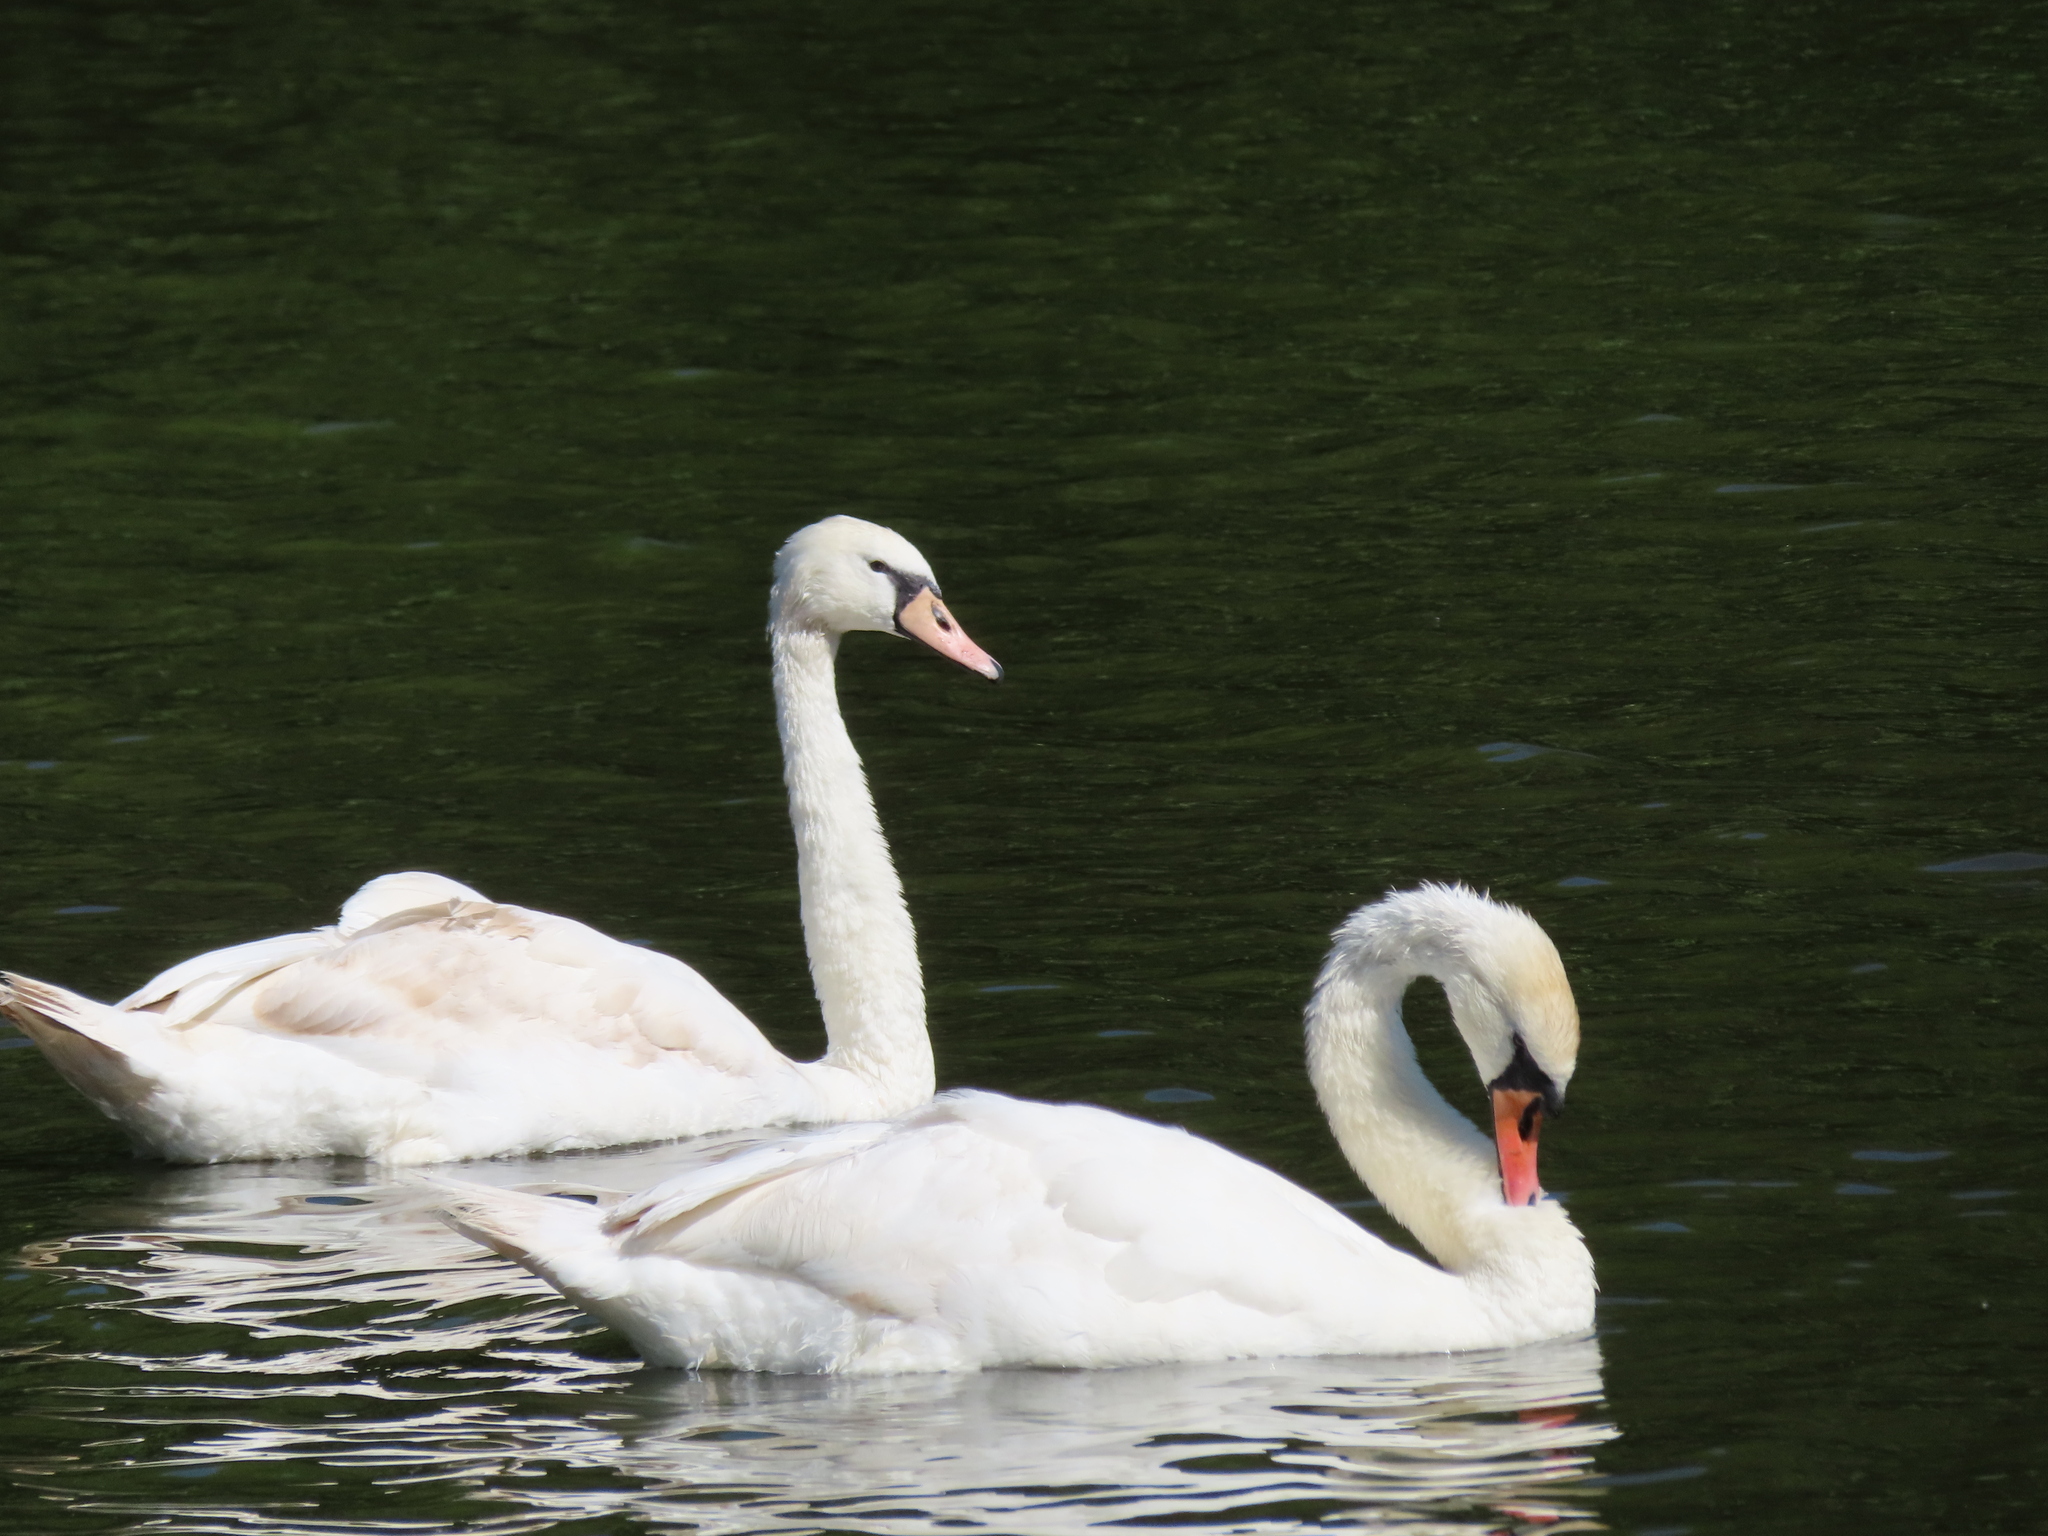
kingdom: Animalia
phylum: Chordata
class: Aves
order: Anseriformes
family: Anatidae
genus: Cygnus
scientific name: Cygnus olor
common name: Mute swan
